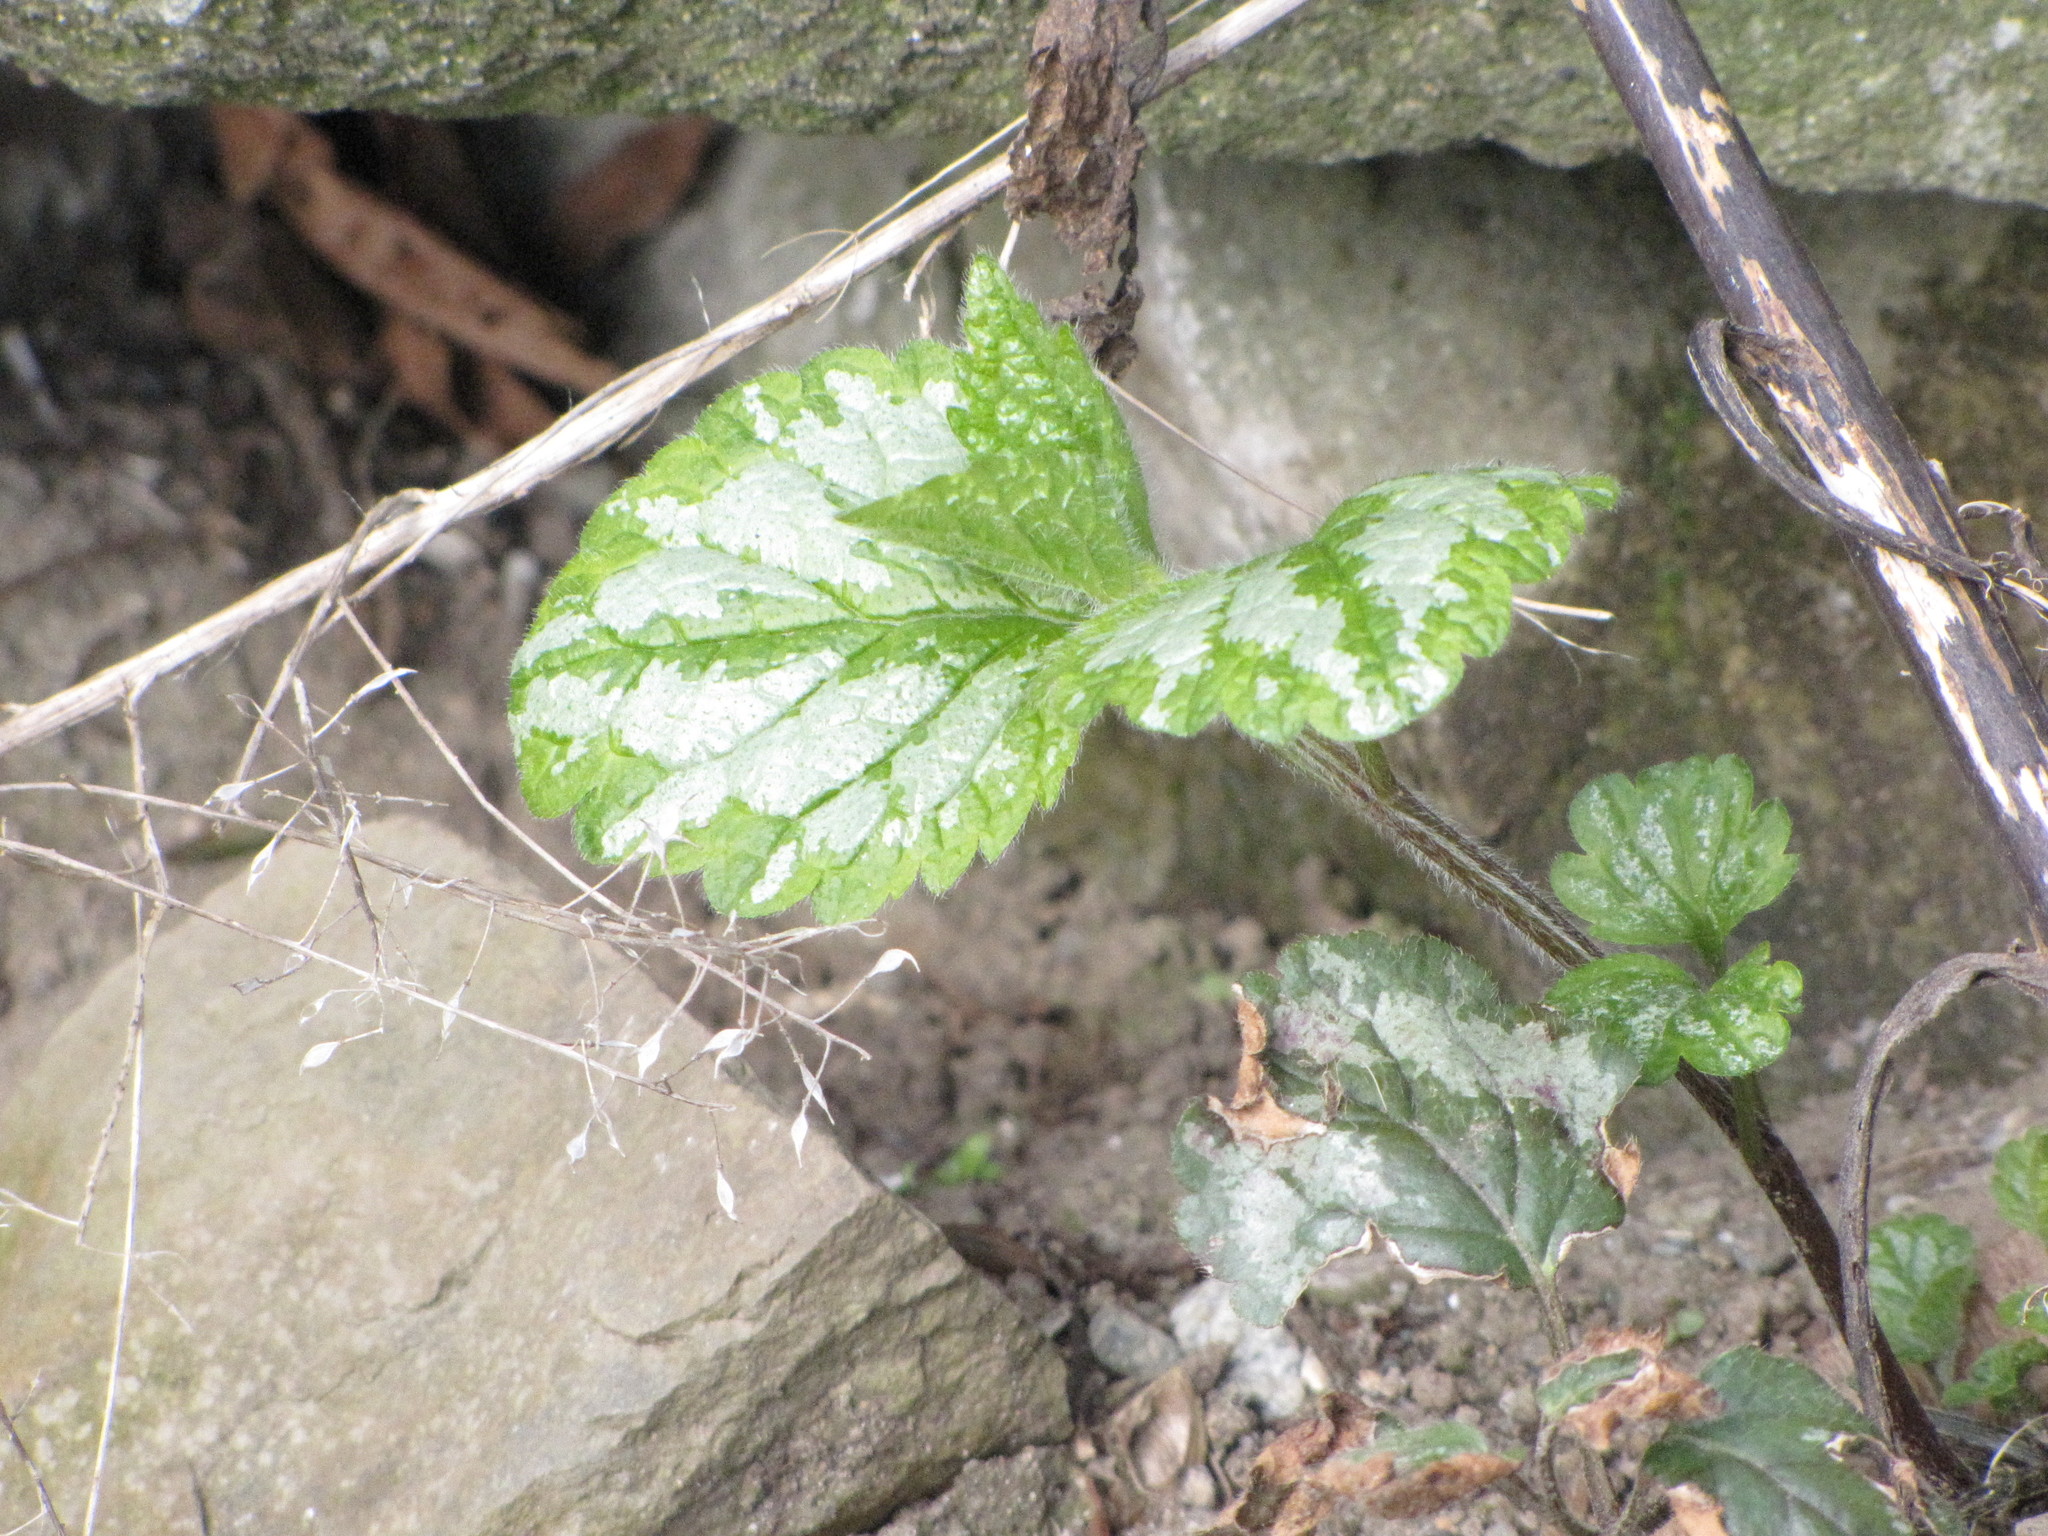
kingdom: Plantae
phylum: Tracheophyta
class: Magnoliopsida
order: Lamiales
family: Lamiaceae
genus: Lamium
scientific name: Lamium galeobdolon
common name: Yellow archangel
